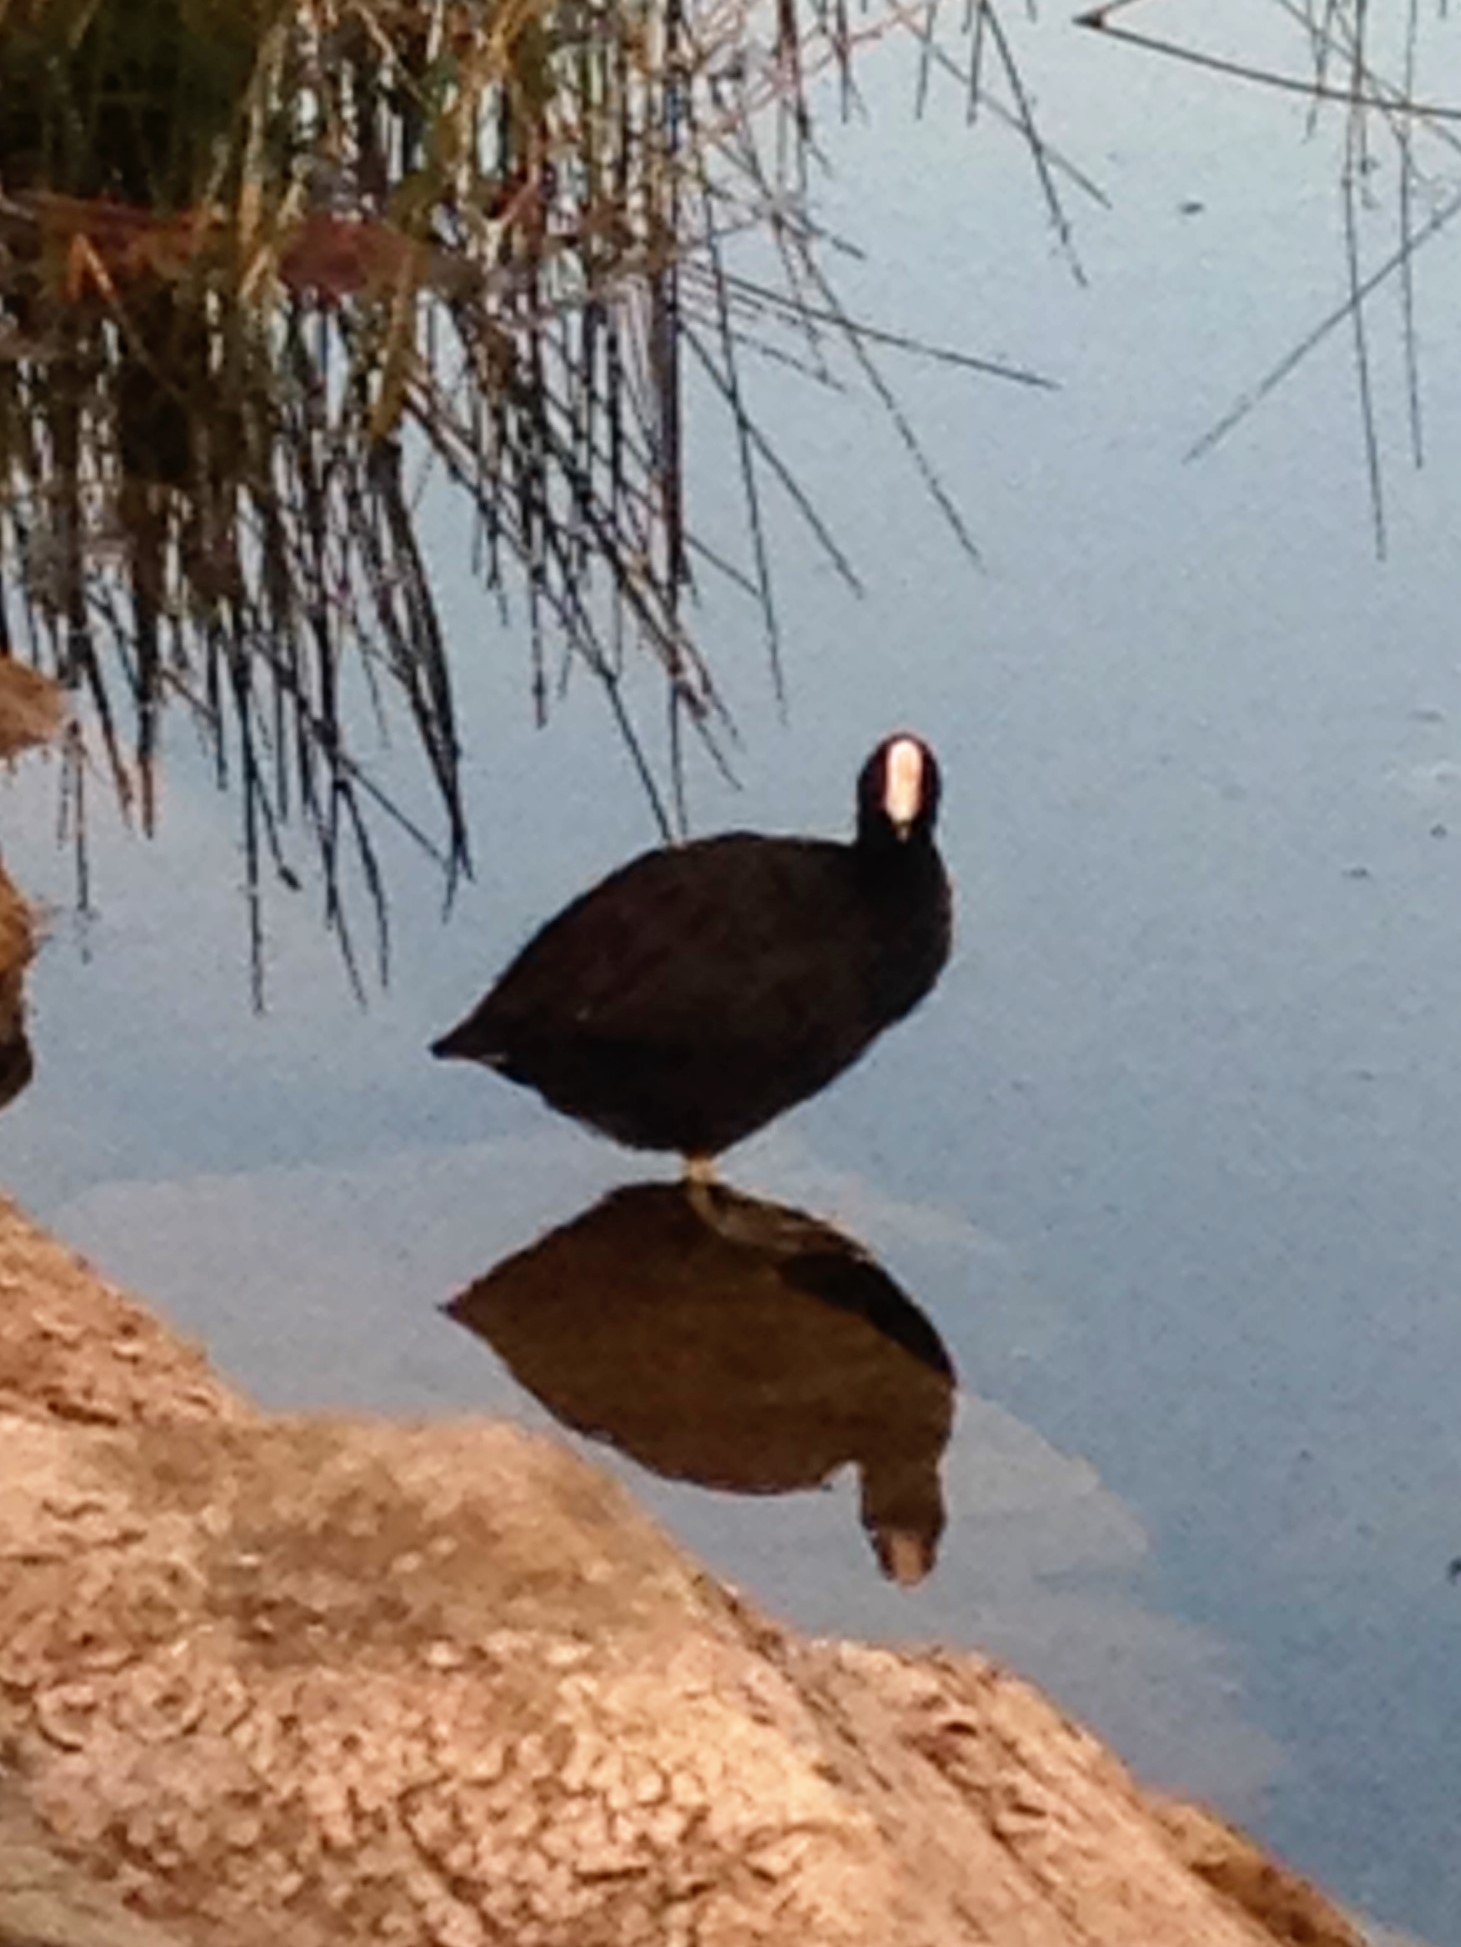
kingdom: Animalia
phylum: Chordata
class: Aves
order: Gruiformes
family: Rallidae
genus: Fulica
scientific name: Fulica americana
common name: American coot
